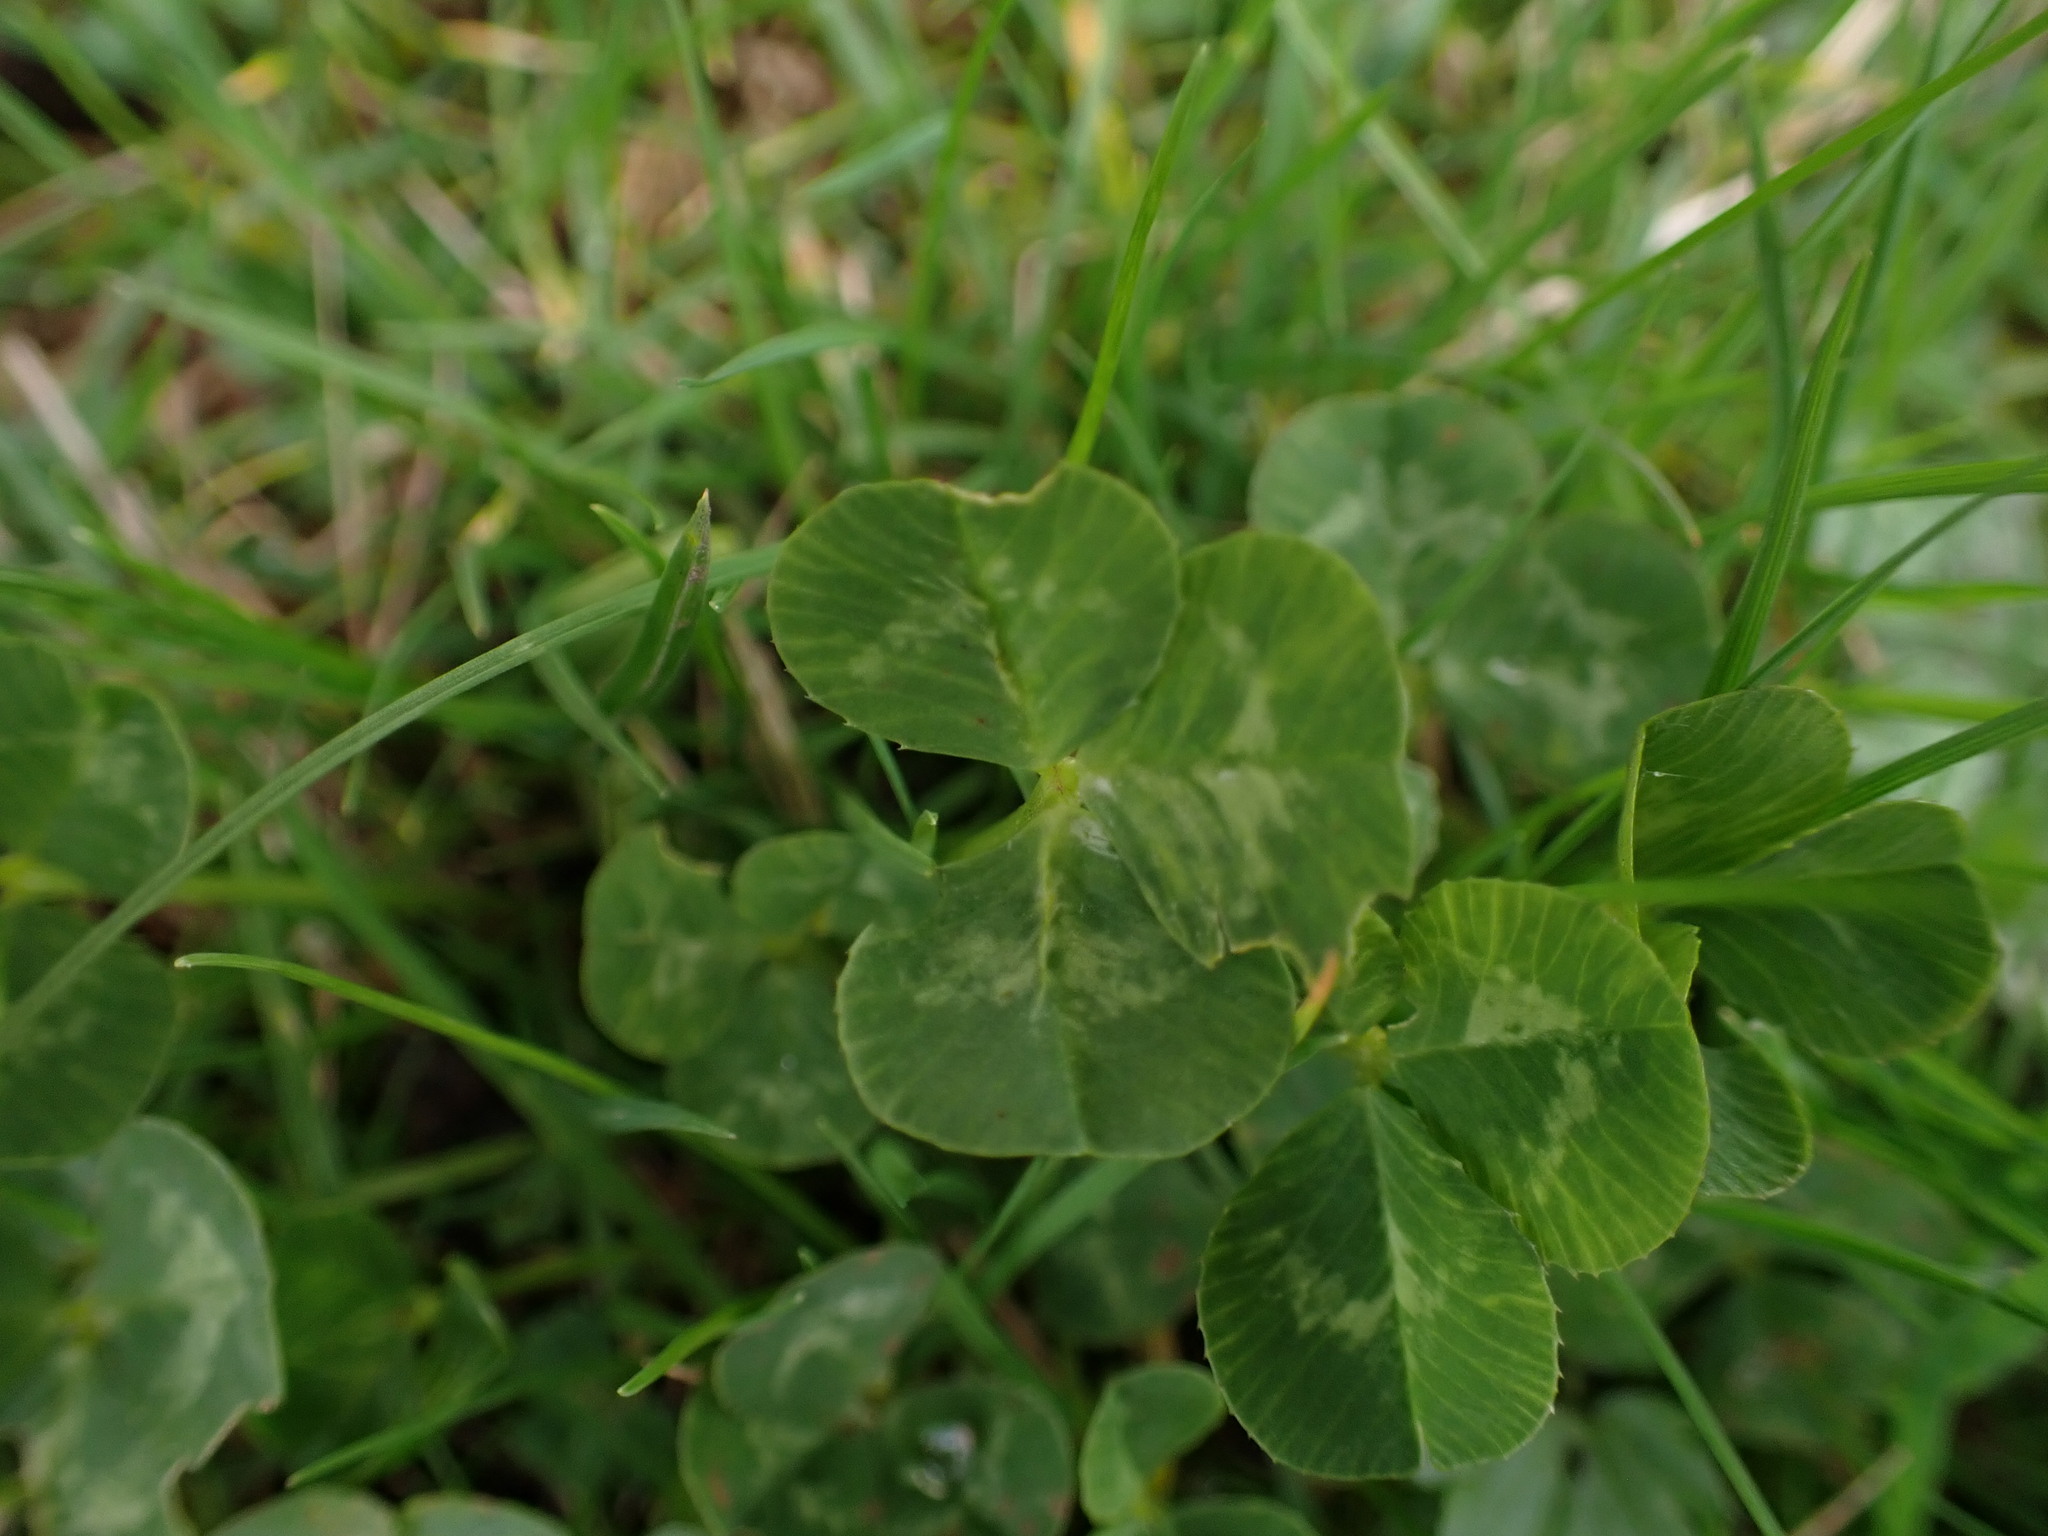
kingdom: Plantae
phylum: Tracheophyta
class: Magnoliopsida
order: Fabales
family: Fabaceae
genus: Trifolium
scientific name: Trifolium repens
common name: White clover
